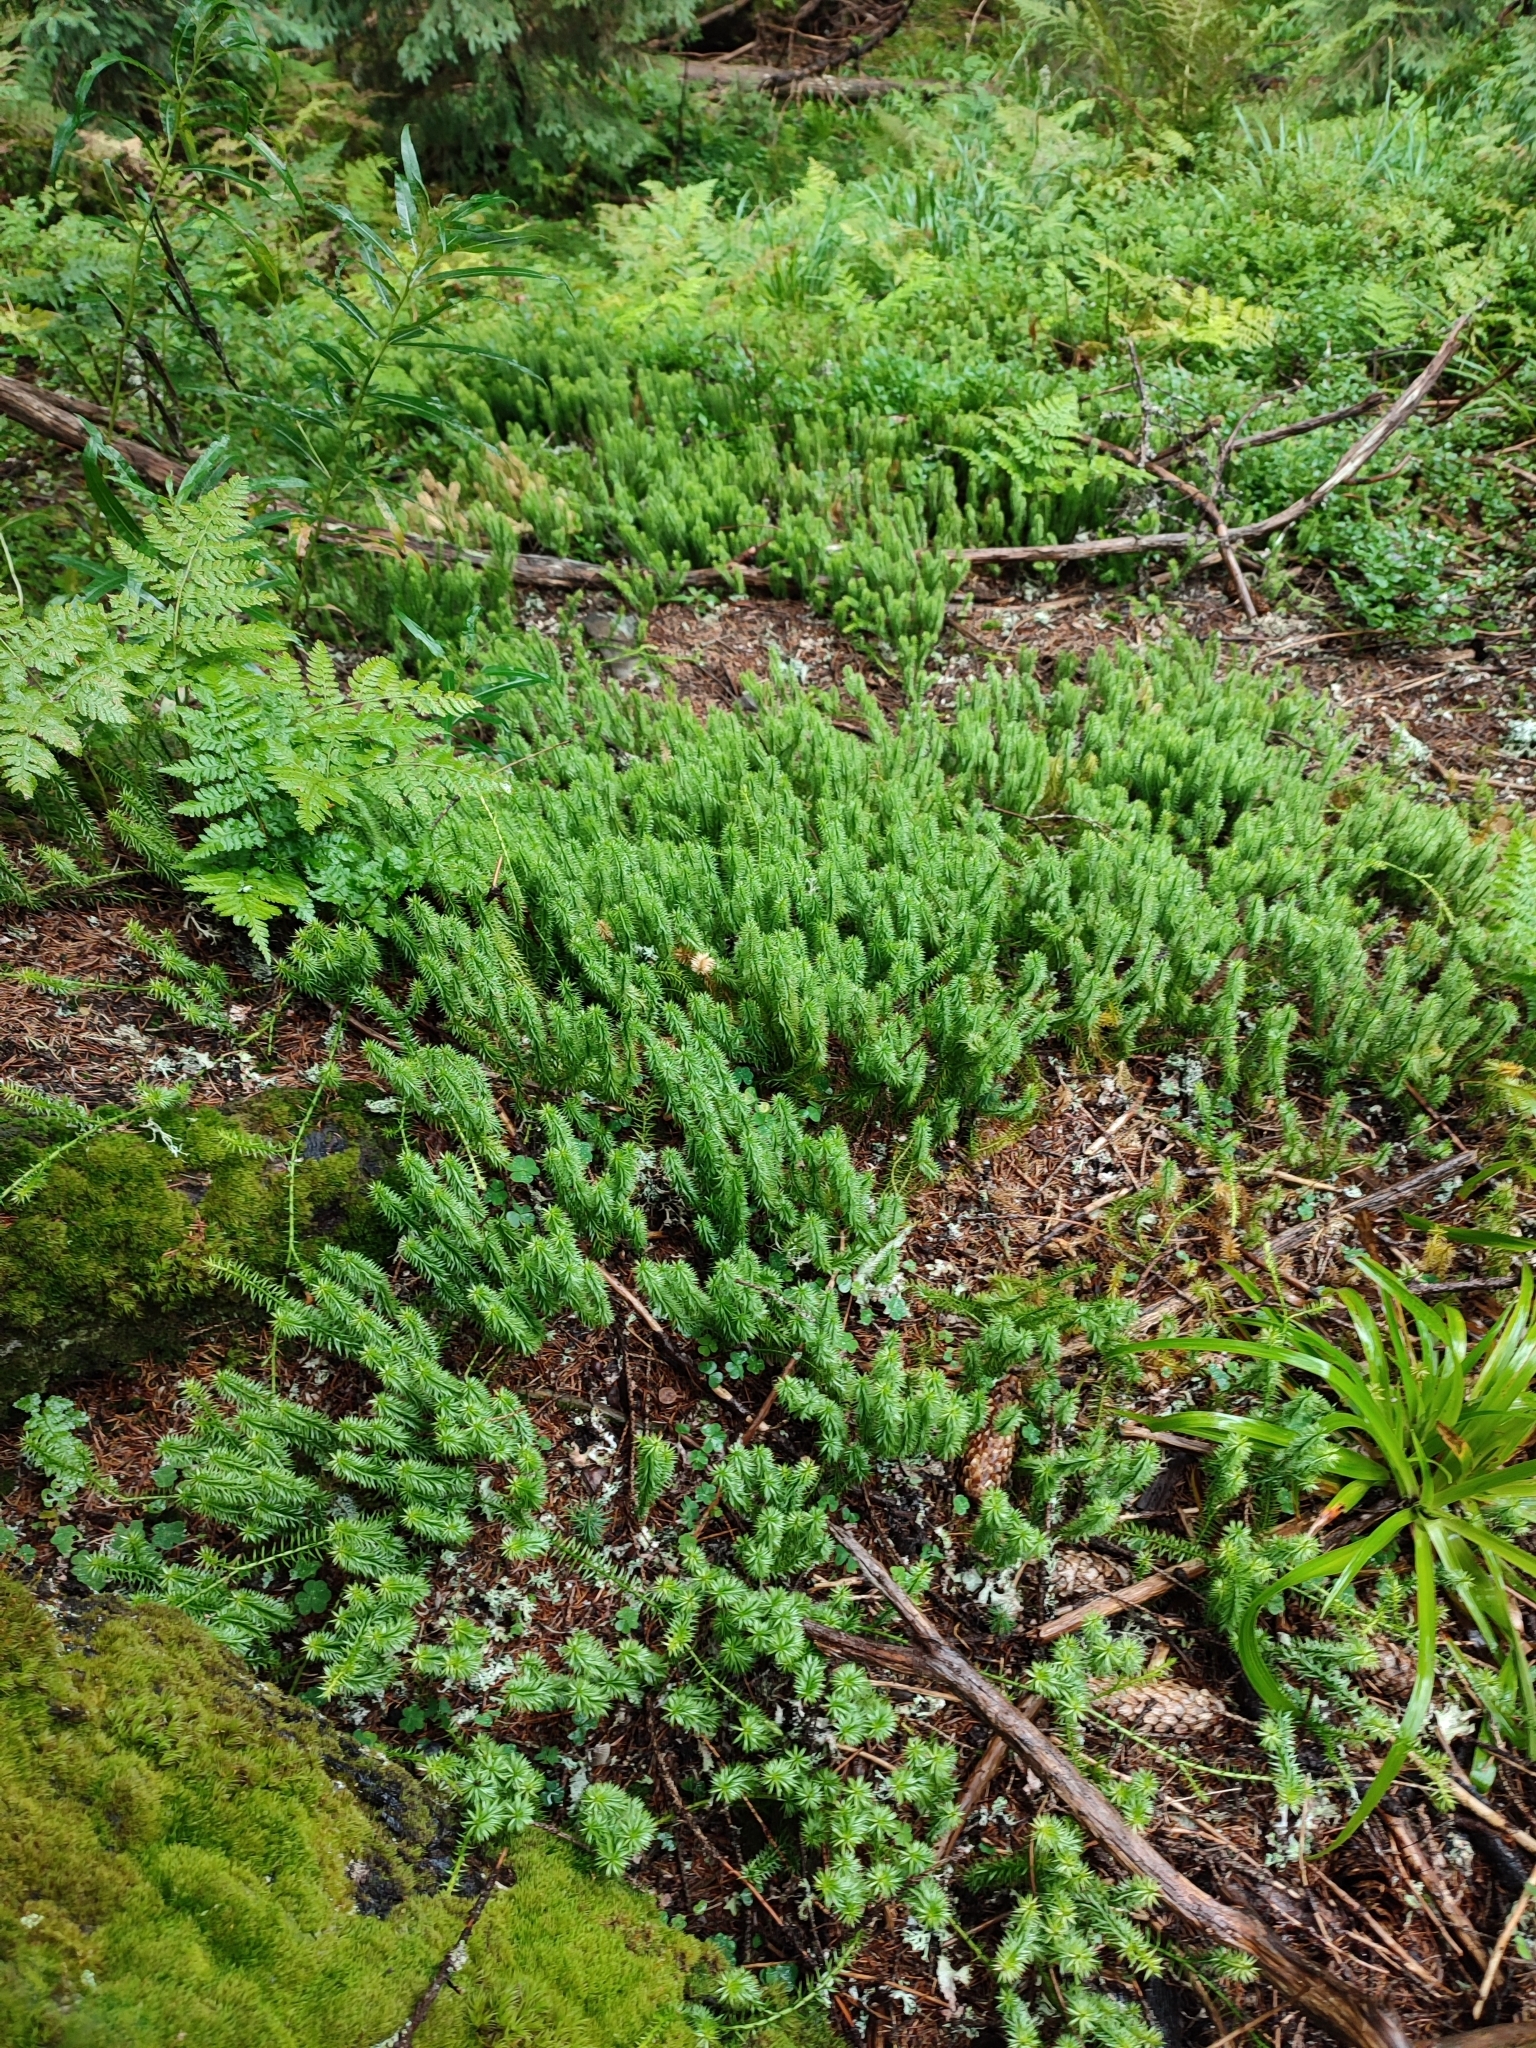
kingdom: Plantae
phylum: Tracheophyta
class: Lycopodiopsida
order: Lycopodiales
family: Lycopodiaceae
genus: Spinulum
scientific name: Spinulum annotinum
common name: Interrupted club-moss
